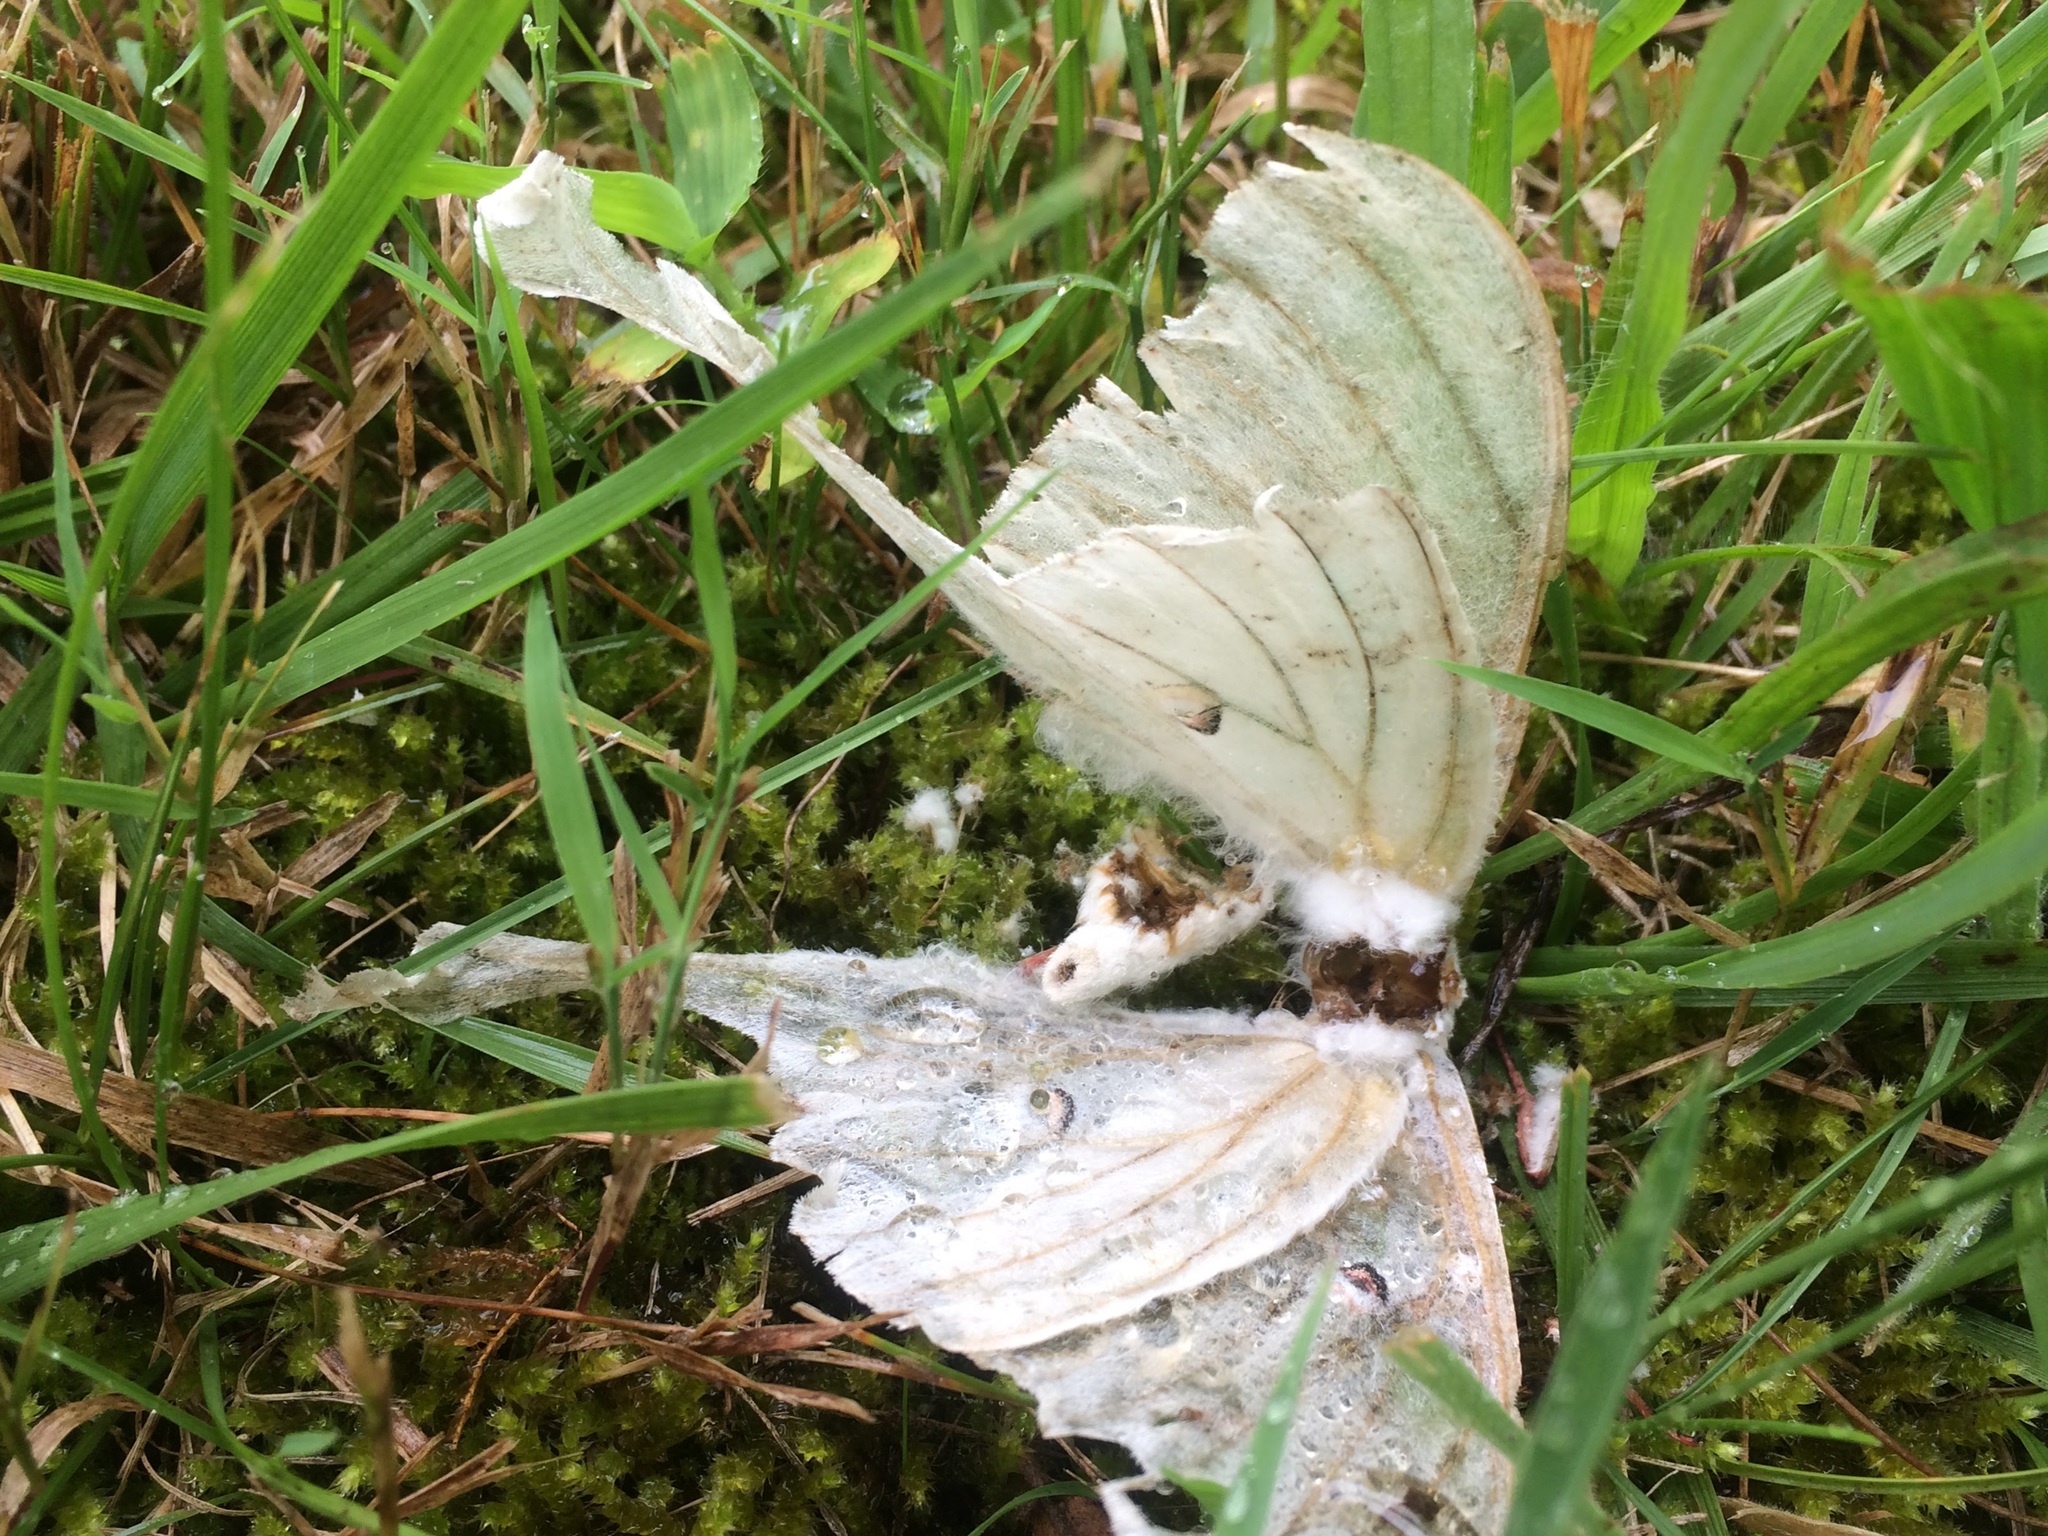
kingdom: Animalia
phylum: Arthropoda
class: Insecta
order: Lepidoptera
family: Saturniidae
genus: Actias
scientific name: Actias luna
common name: Luna moth
